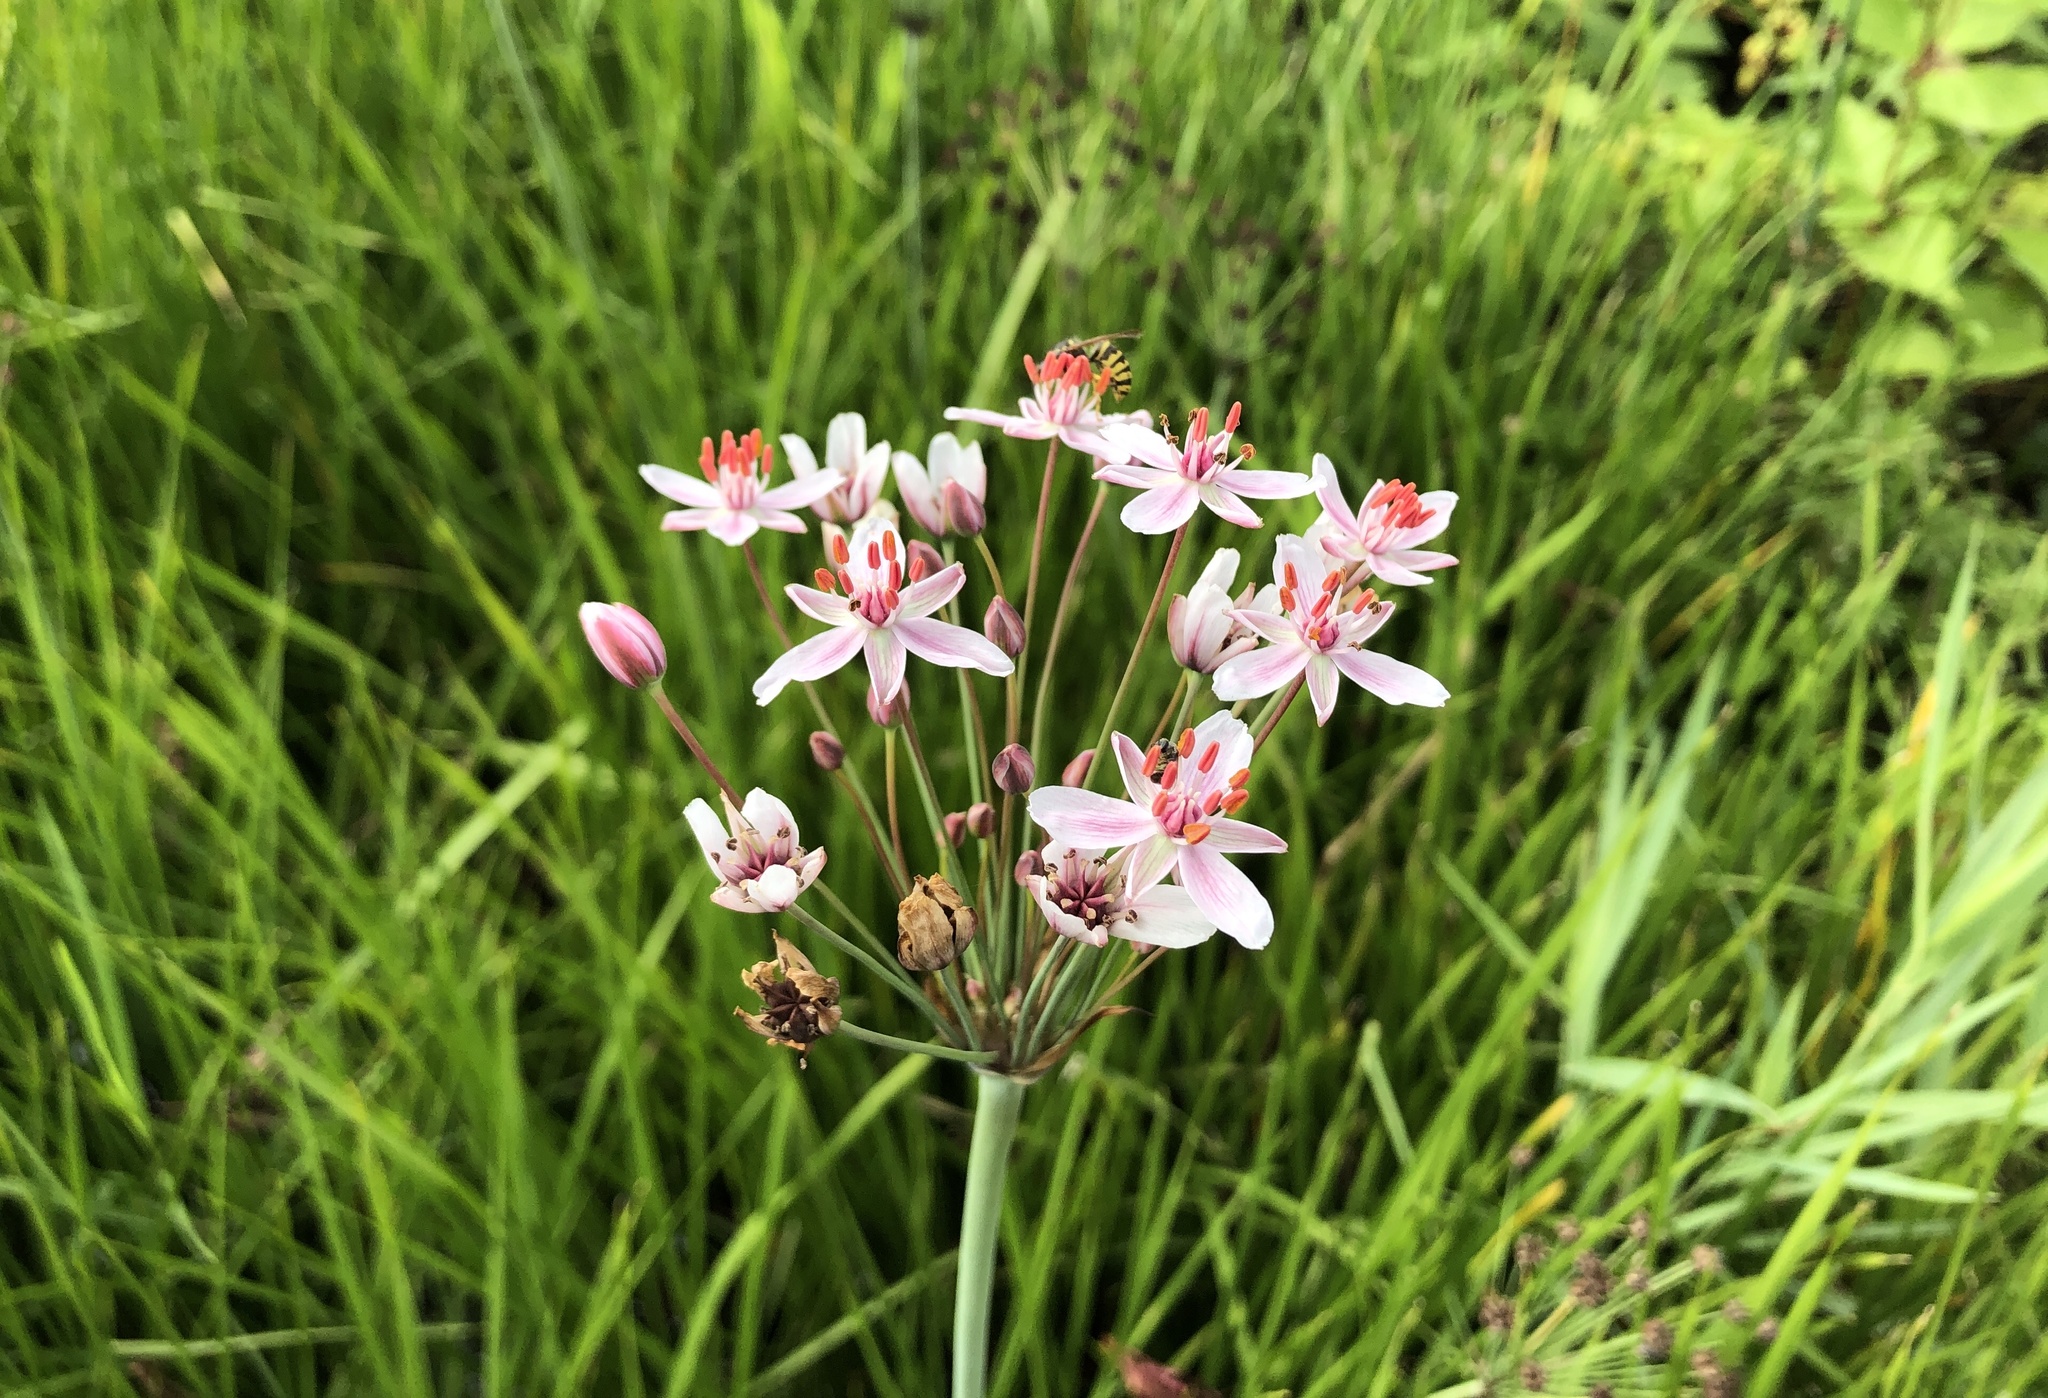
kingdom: Plantae
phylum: Tracheophyta
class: Liliopsida
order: Alismatales
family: Butomaceae
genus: Butomus
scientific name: Butomus umbellatus
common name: Flowering-rush
